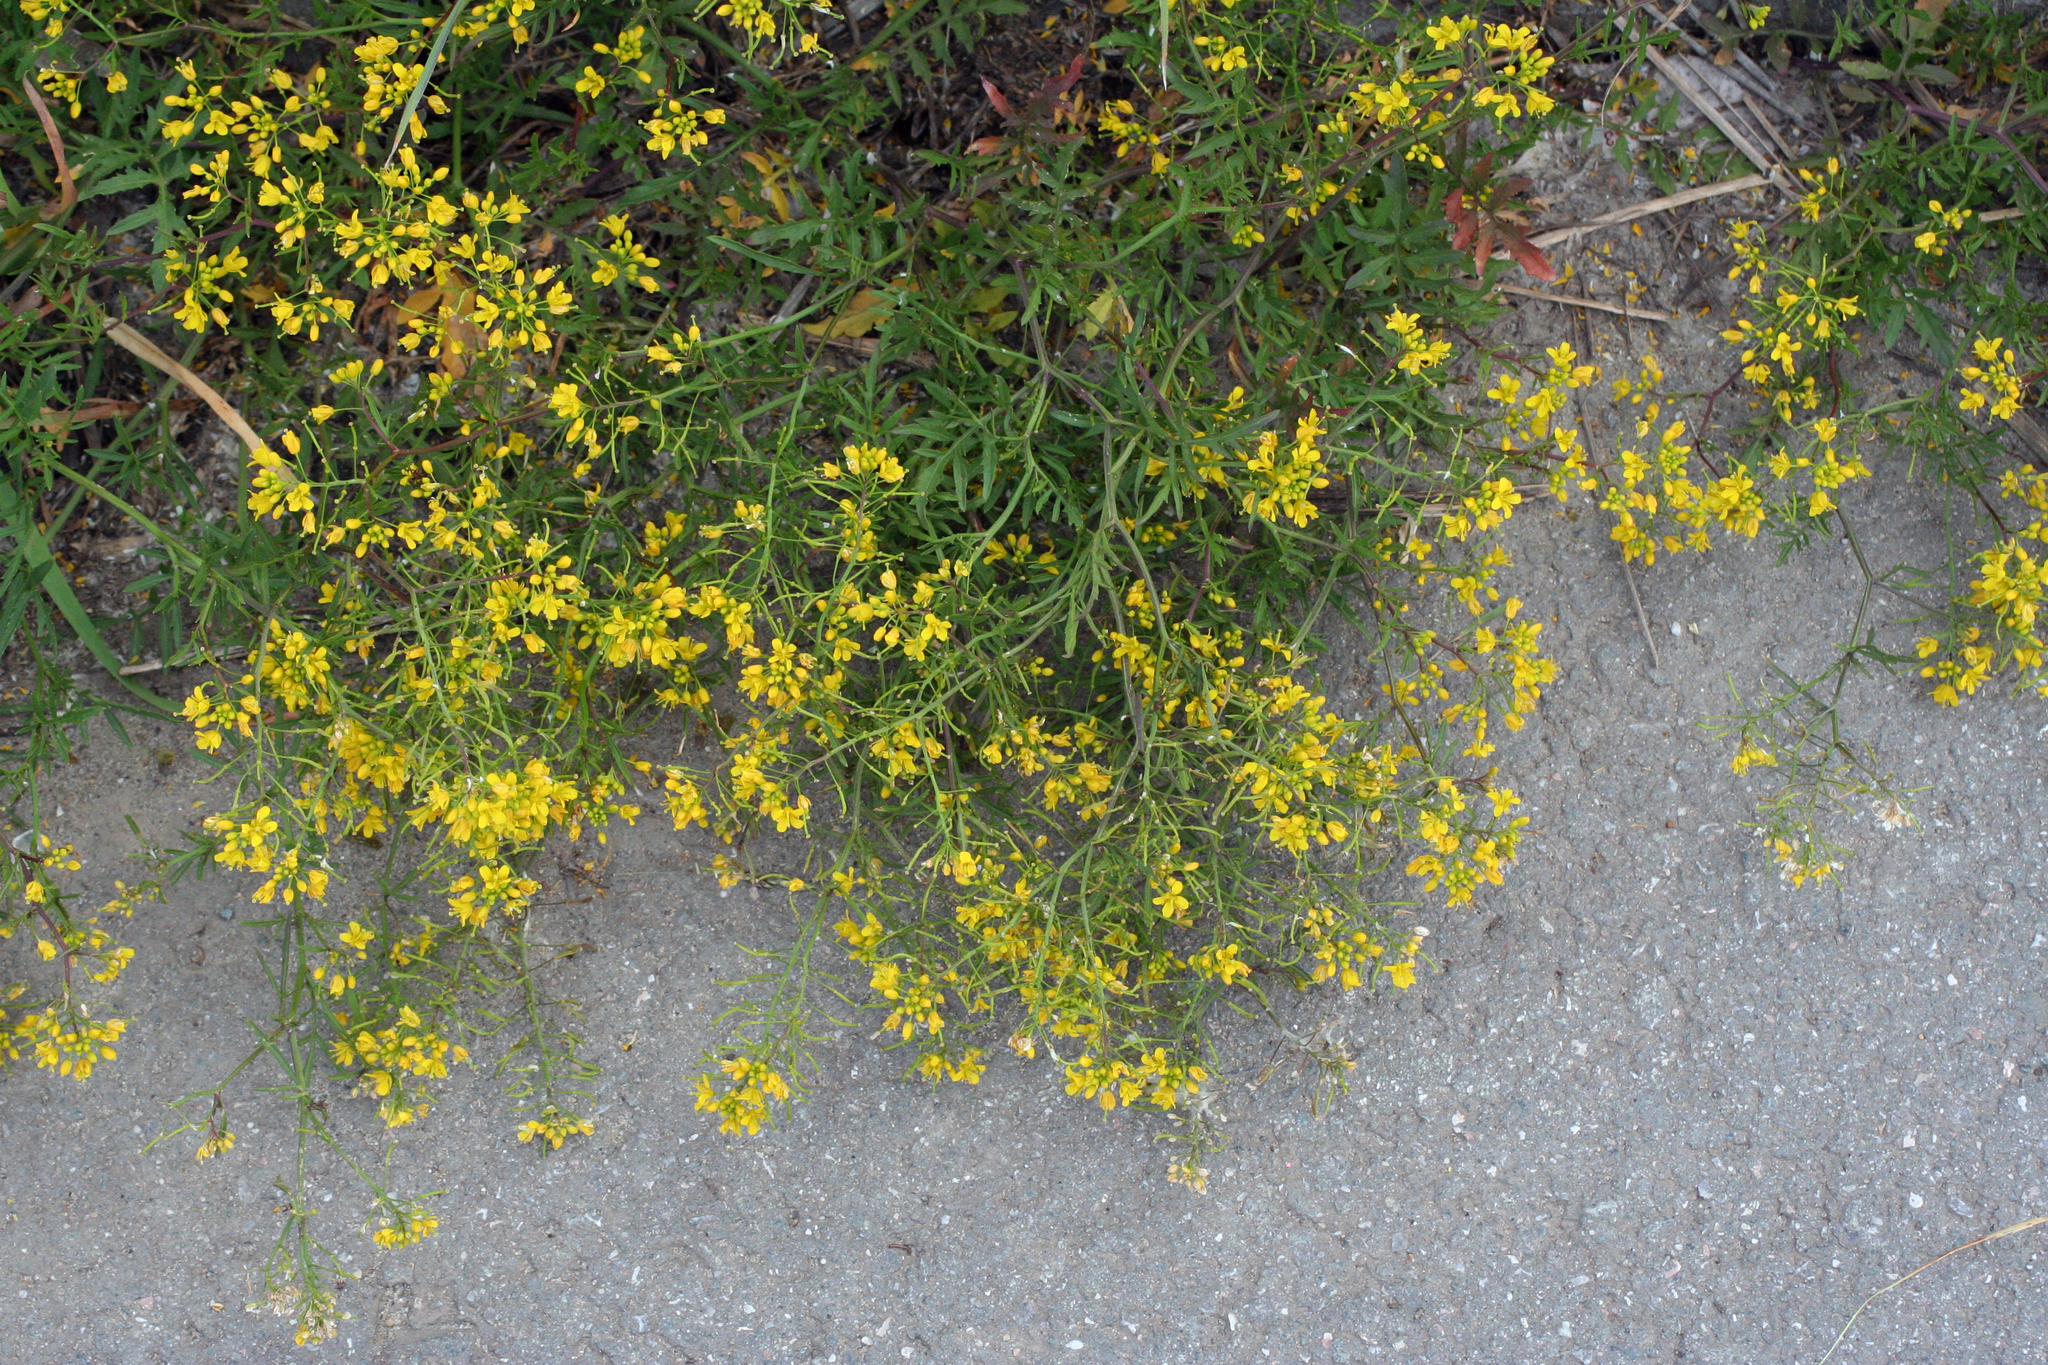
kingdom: Plantae
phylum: Tracheophyta
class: Magnoliopsida
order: Brassicales
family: Brassicaceae
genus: Rorippa
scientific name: Rorippa sylvestris
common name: Creeping yellowcress
